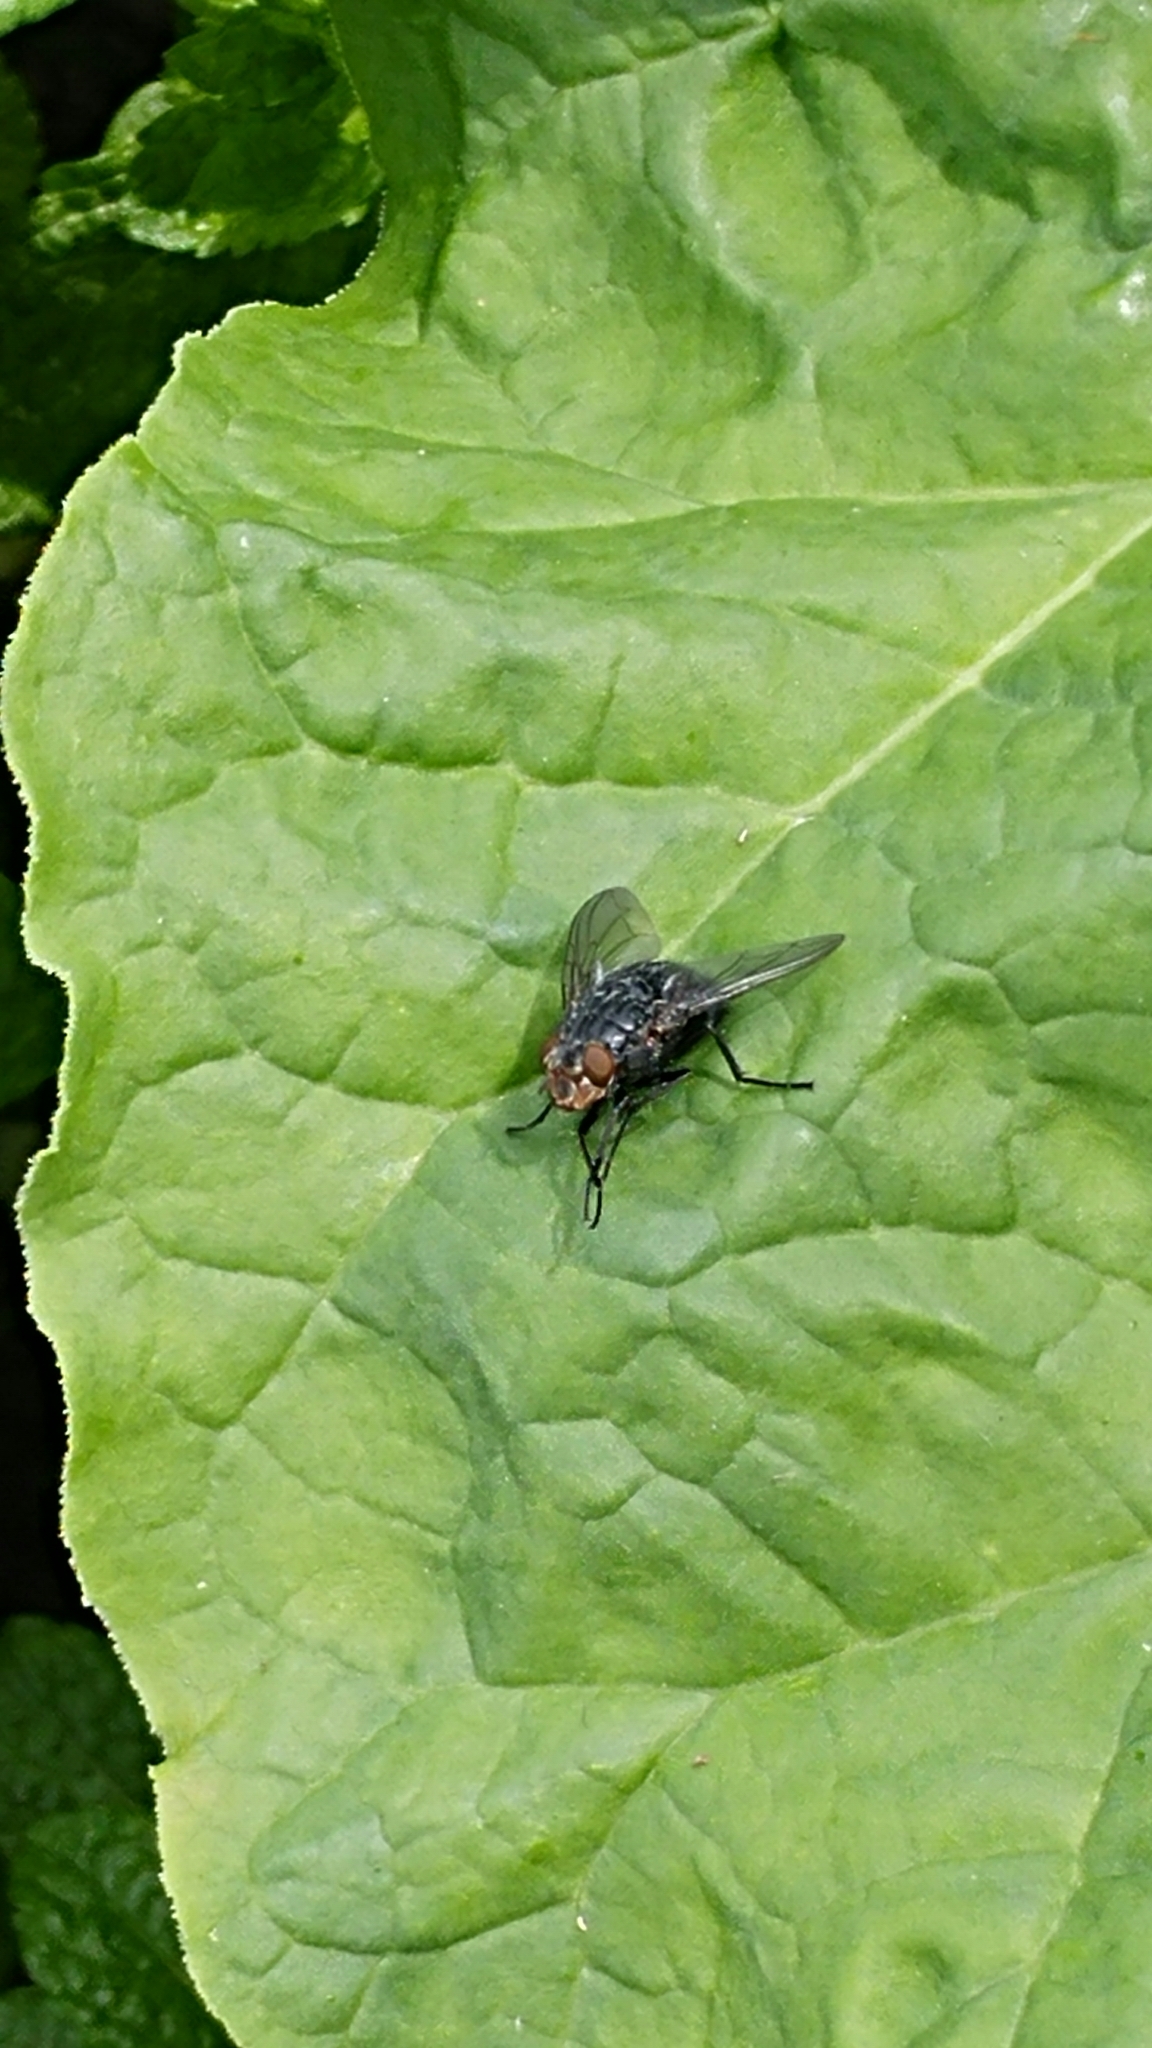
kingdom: Animalia
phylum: Arthropoda
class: Insecta
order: Diptera
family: Calliphoridae
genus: Calliphora
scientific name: Calliphora vicina
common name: Common blow flie
